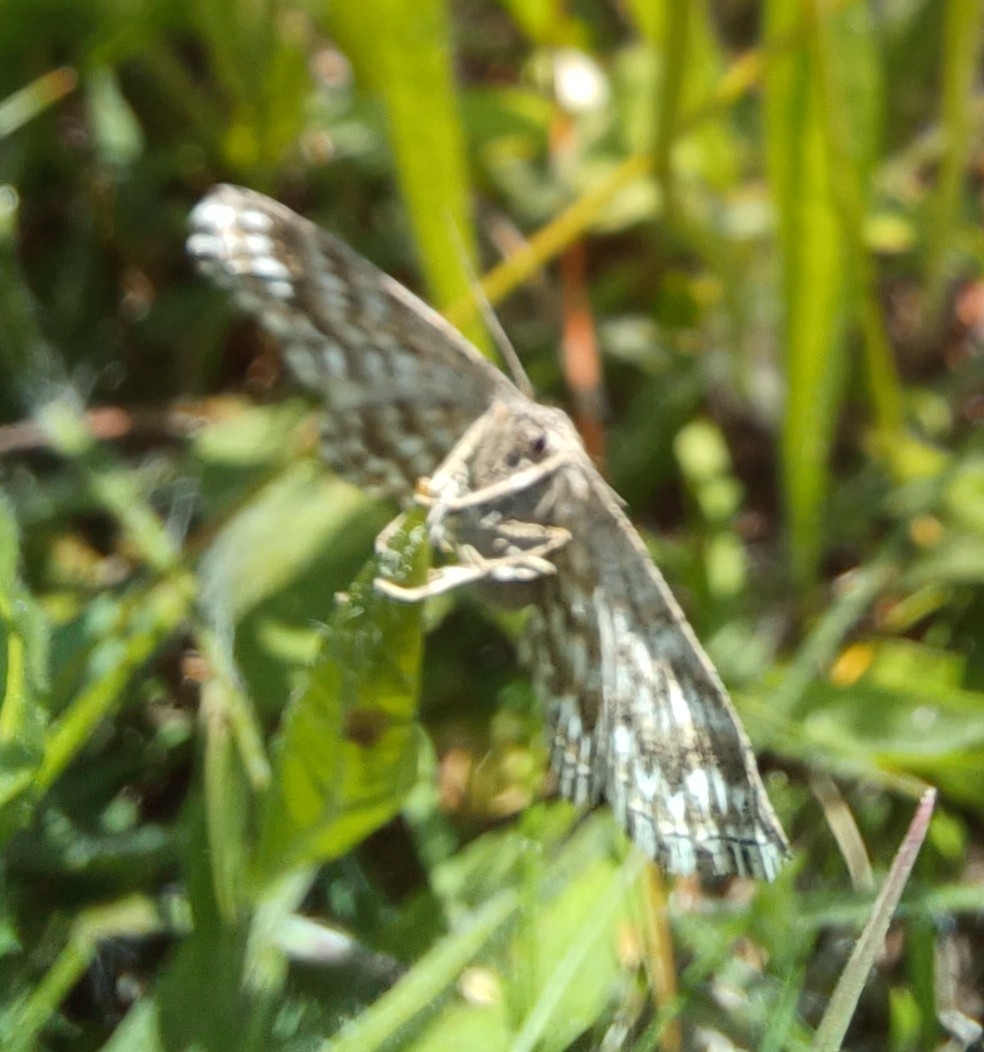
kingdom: Animalia
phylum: Arthropoda
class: Insecta
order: Lepidoptera
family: Geometridae
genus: Scopula
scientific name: Scopula immorata
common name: Lewes wave
